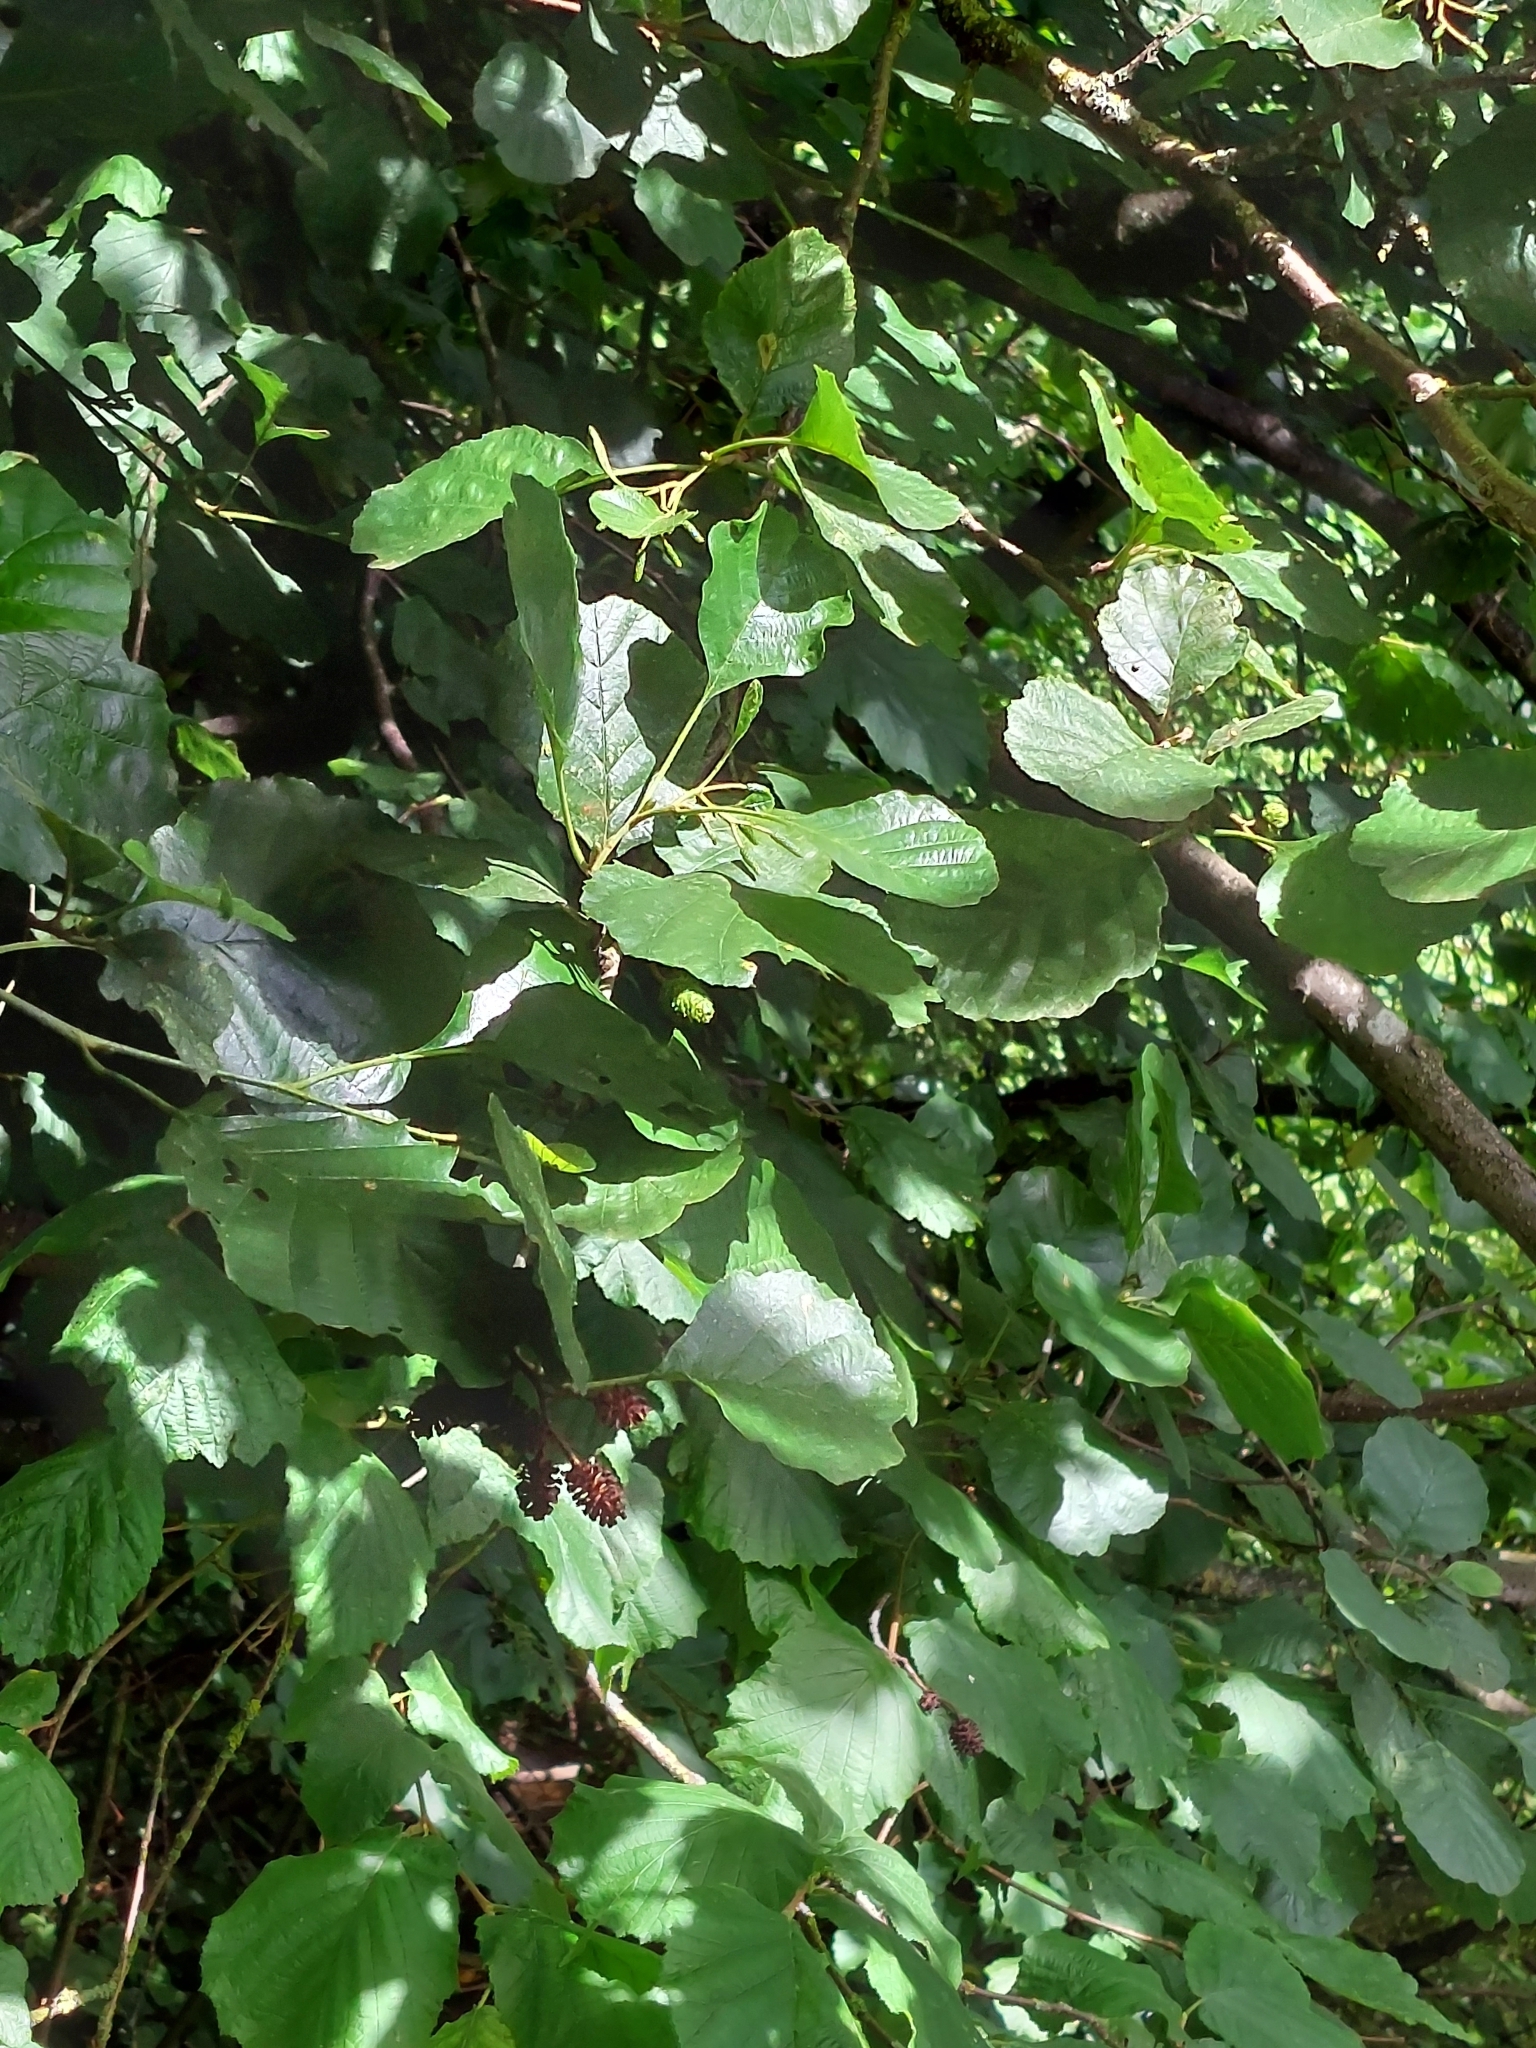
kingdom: Plantae
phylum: Tracheophyta
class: Magnoliopsida
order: Fagales
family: Betulaceae
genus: Alnus
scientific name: Alnus glutinosa
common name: Black alder
